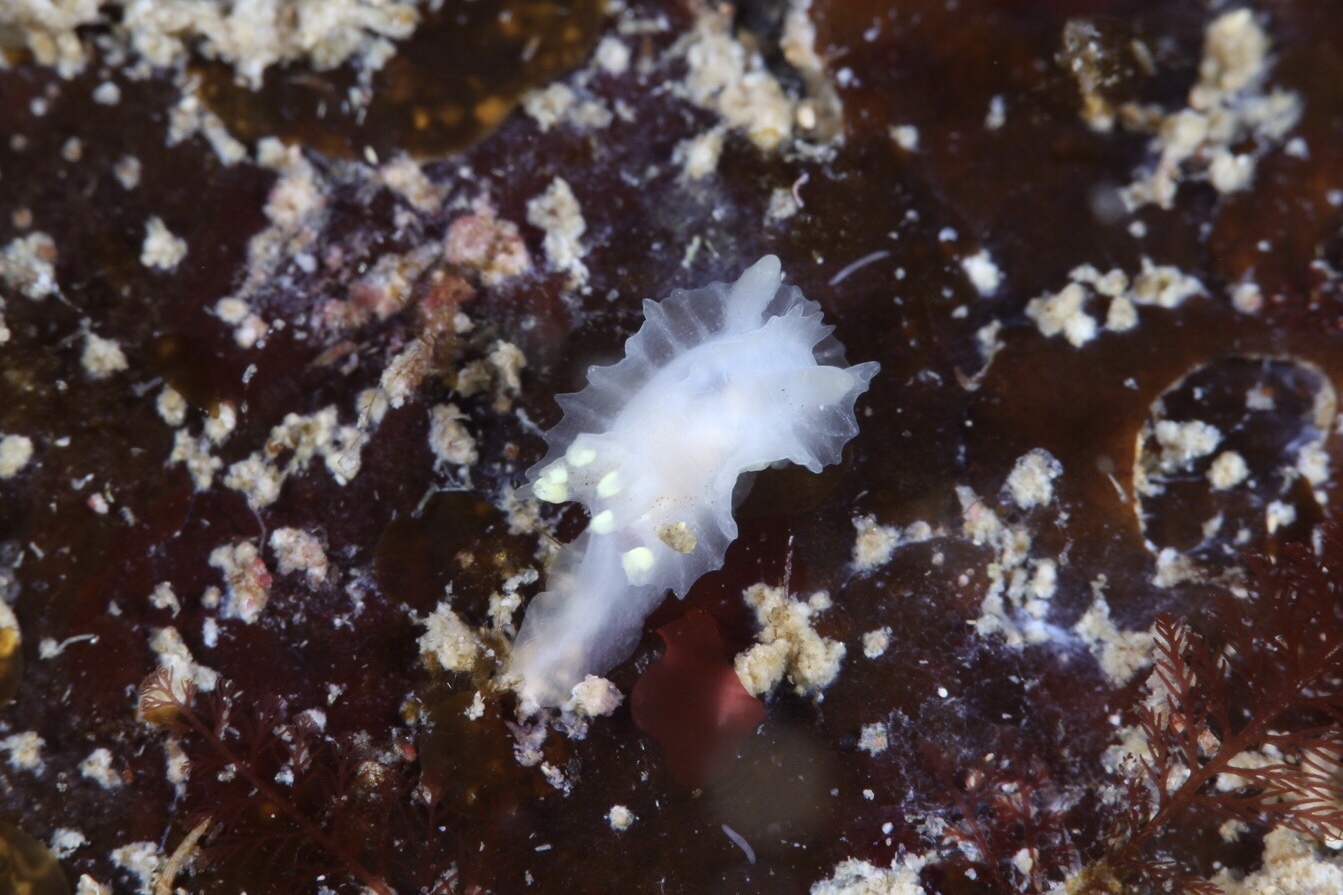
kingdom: Animalia
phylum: Mollusca
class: Gastropoda
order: Nudibranchia
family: Goniodorididae
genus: Lophodoris
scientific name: Lophodoris danielsseni
